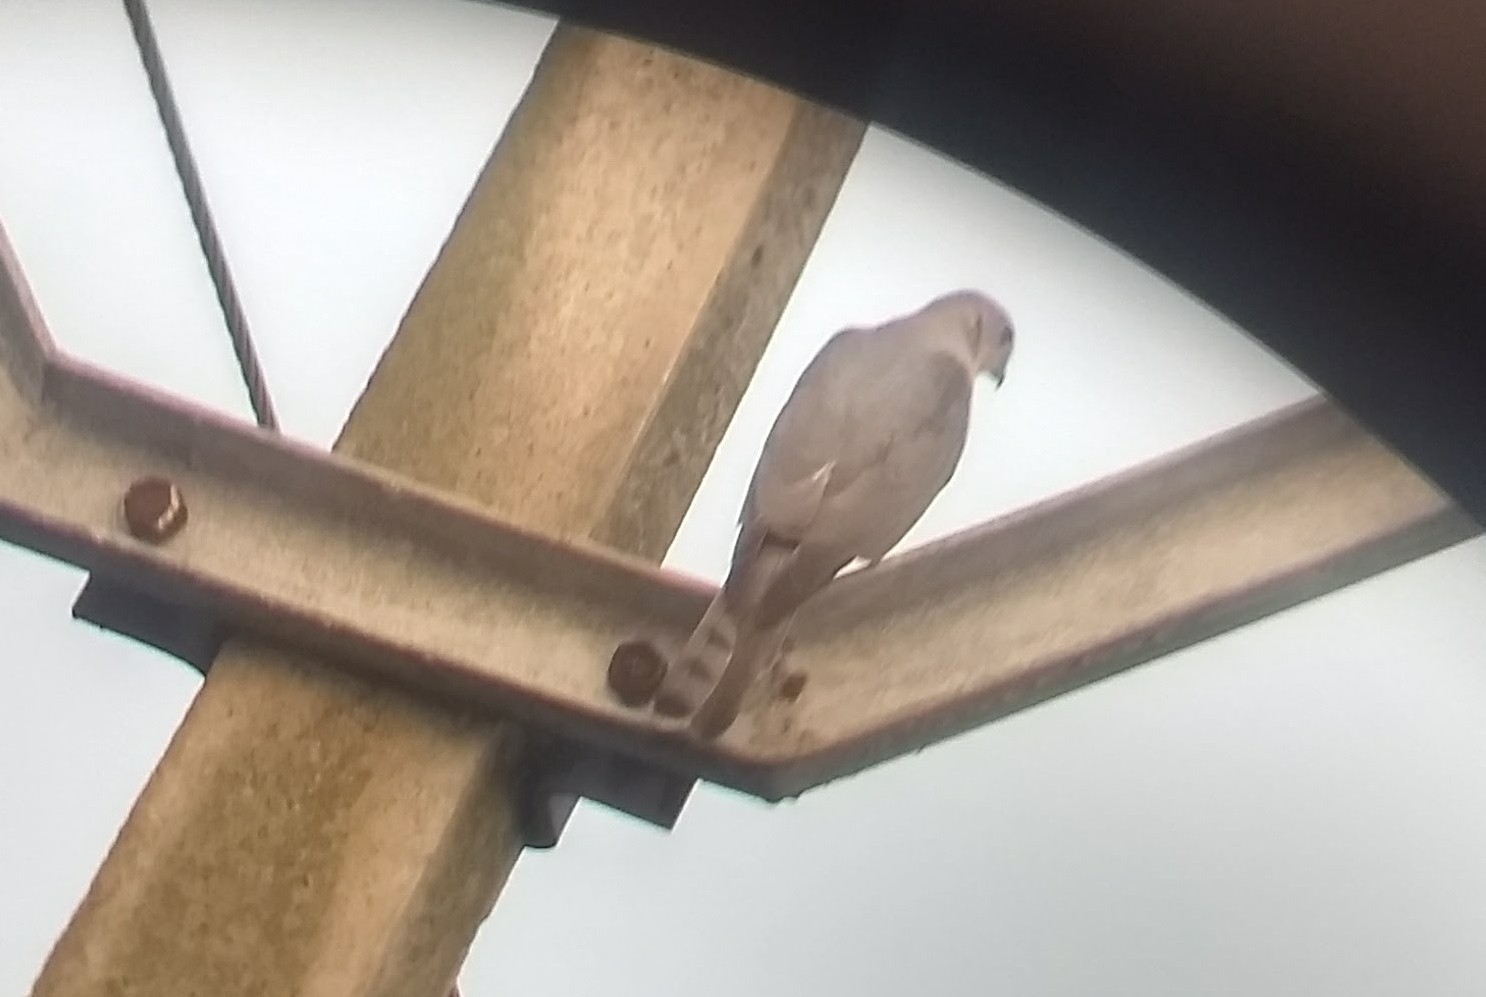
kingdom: Animalia
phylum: Chordata
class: Aves
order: Accipitriformes
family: Accipitridae
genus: Accipiter
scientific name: Accipiter badius
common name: Shikra
